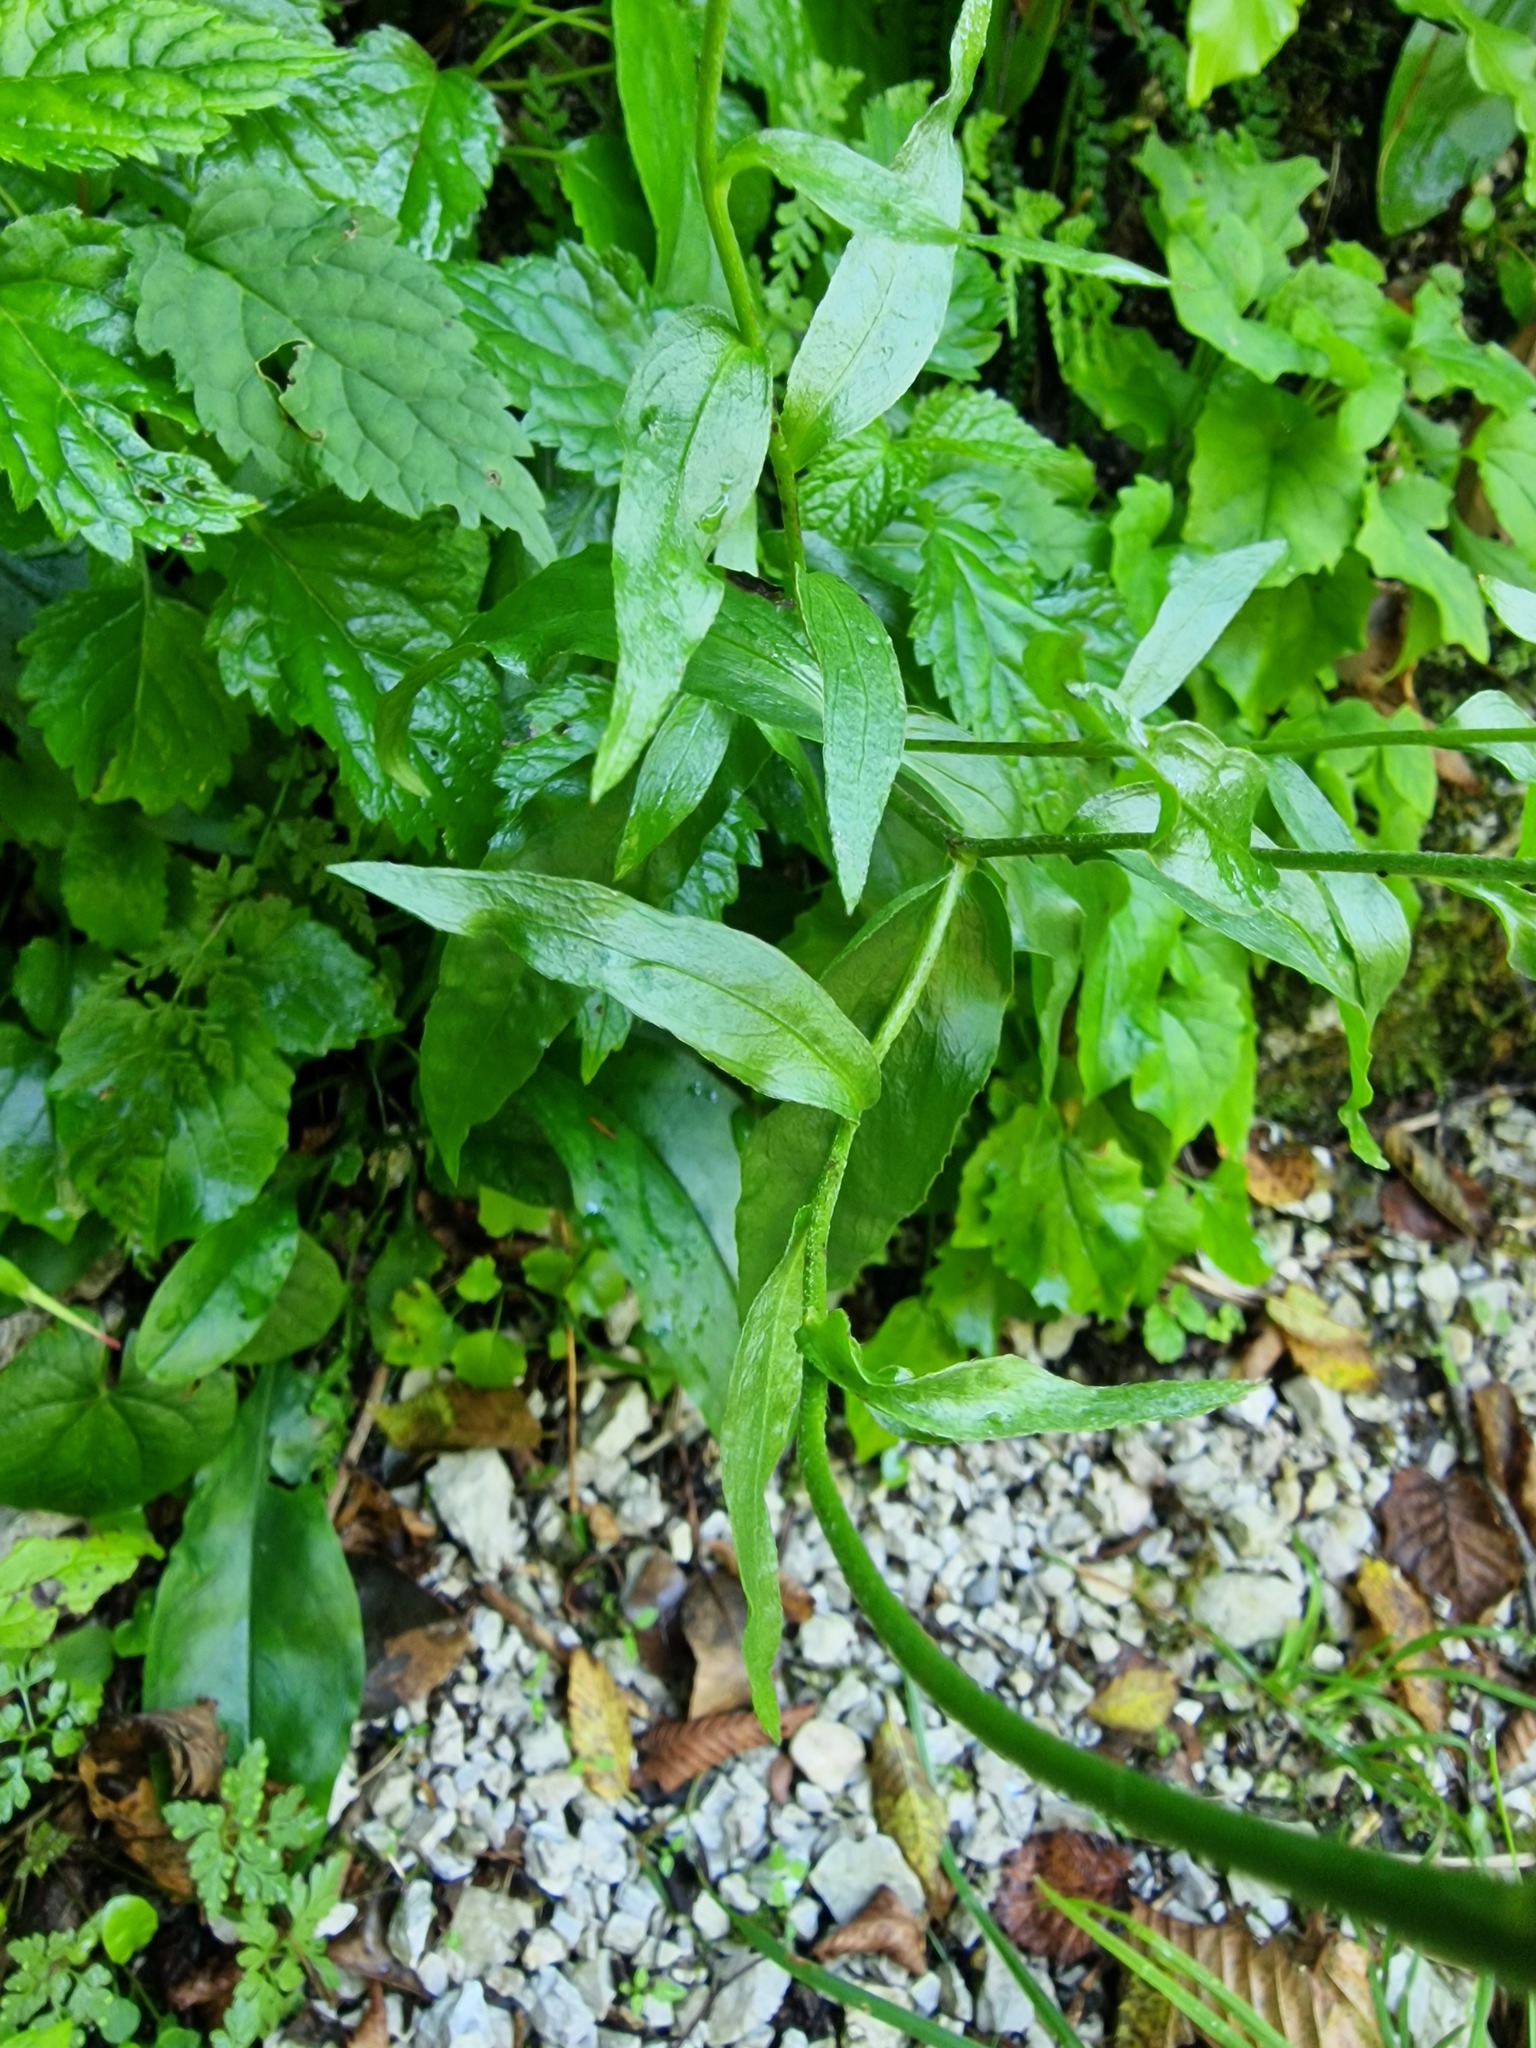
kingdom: Plantae
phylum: Tracheophyta
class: Magnoliopsida
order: Asterales
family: Asteraceae
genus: Buphthalmum
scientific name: Buphthalmum salicifolium
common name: Willow-leaved yellow-oxeye
